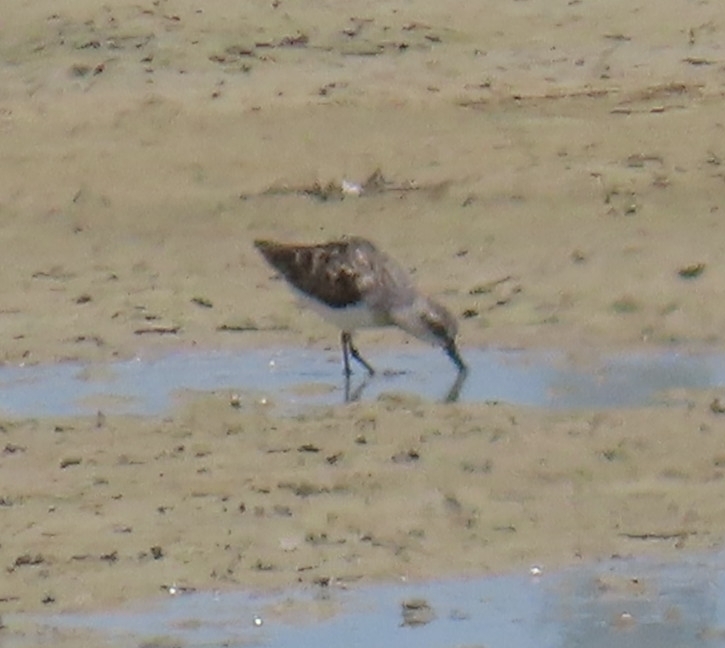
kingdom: Animalia
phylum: Chordata
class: Aves
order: Charadriiformes
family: Scolopacidae
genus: Calidris
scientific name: Calidris pusilla
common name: Semipalmated sandpiper
